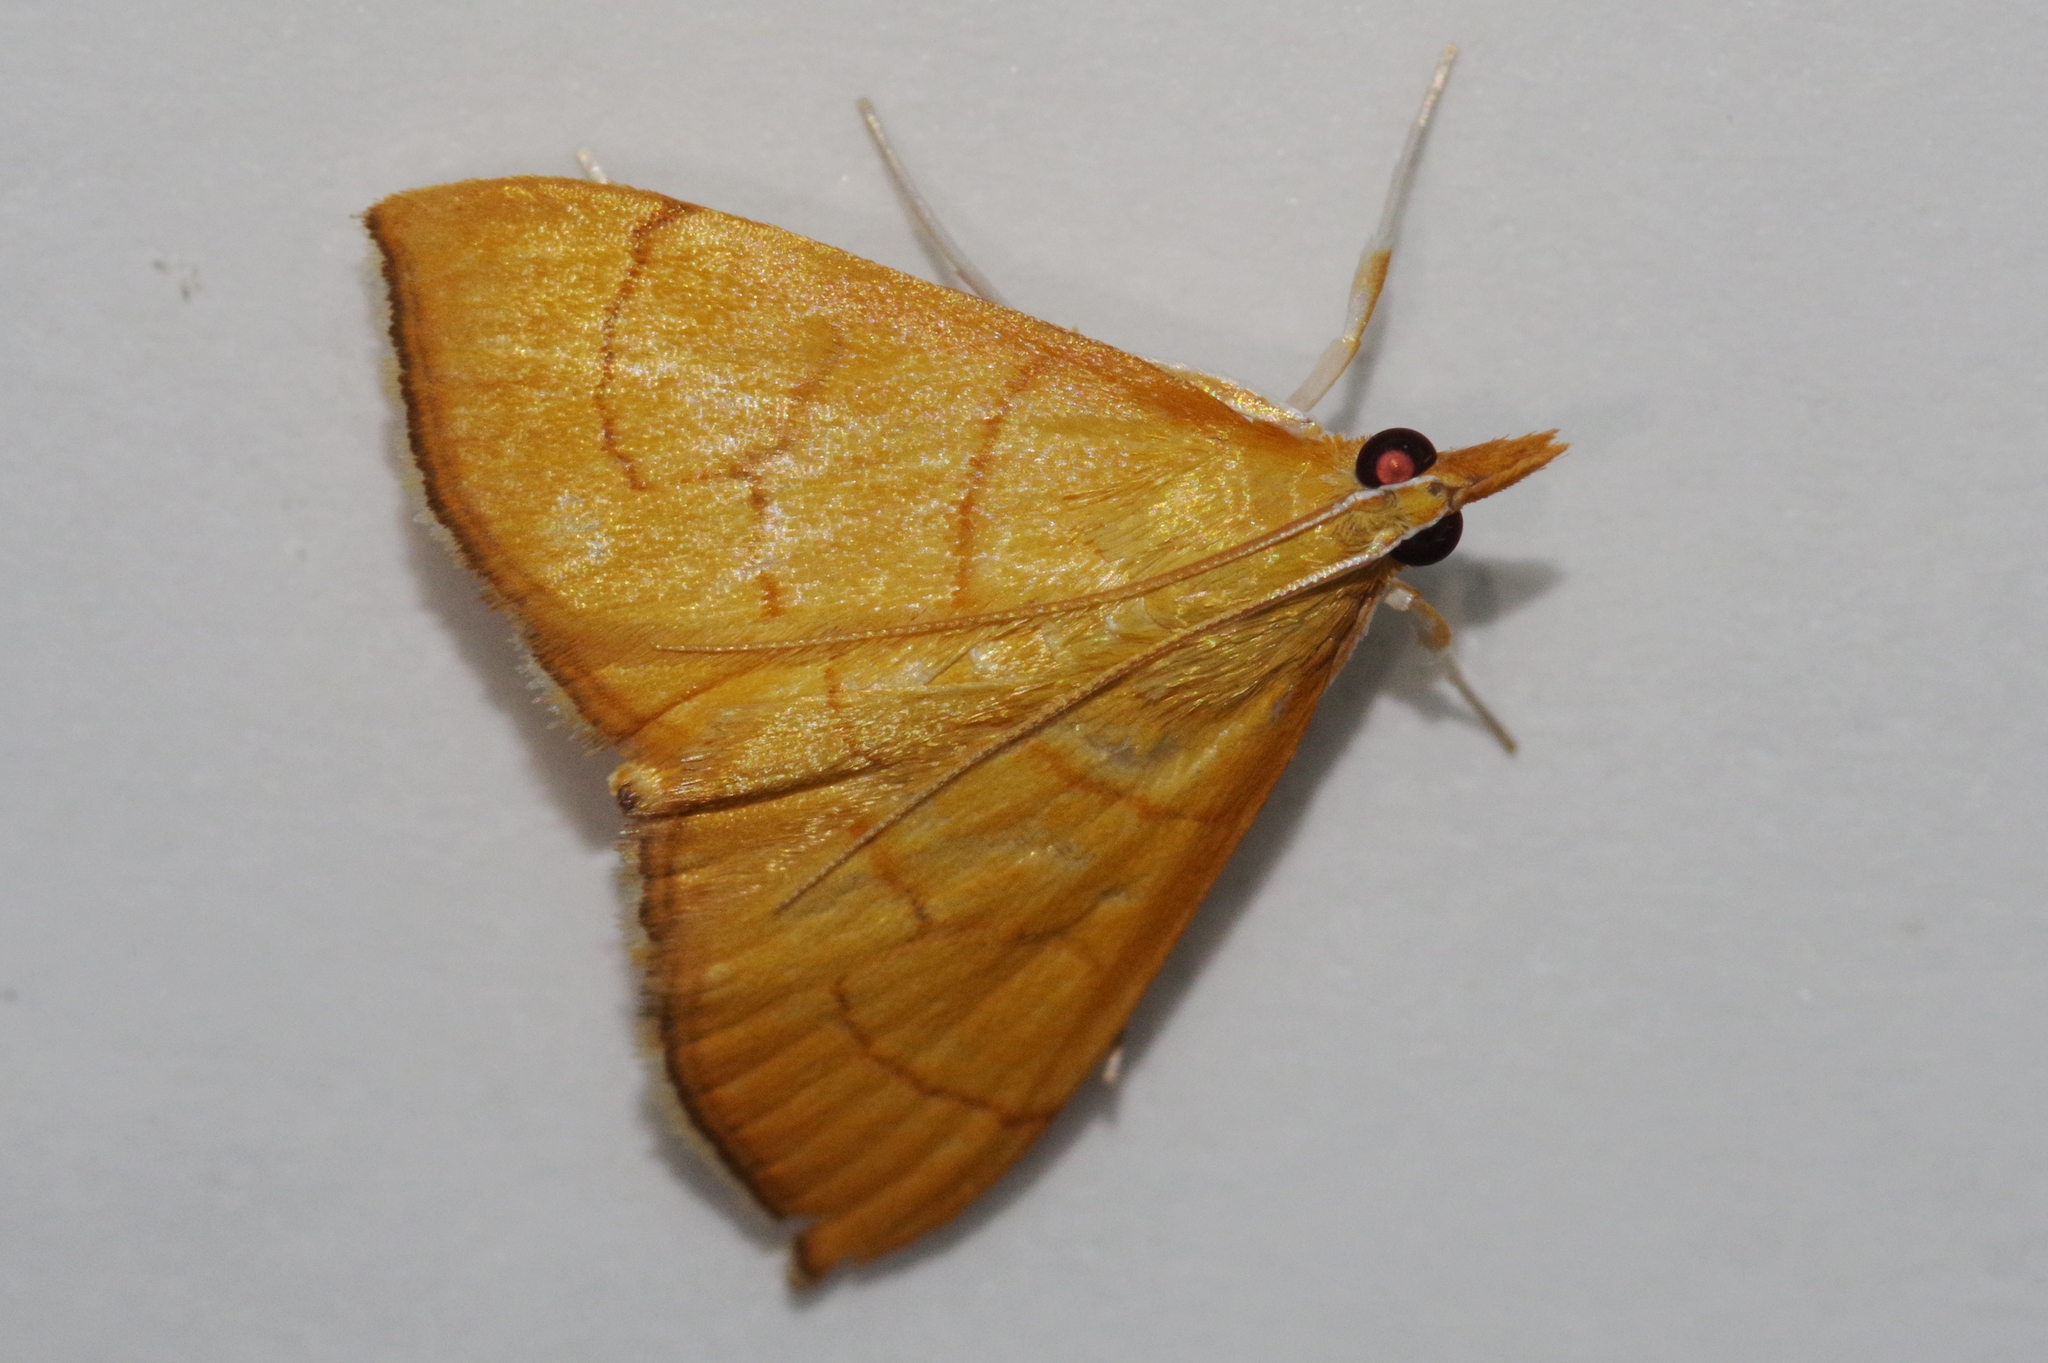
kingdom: Animalia
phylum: Arthropoda
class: Insecta
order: Lepidoptera
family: Crambidae
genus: Ecpyrrhorrhoe
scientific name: Ecpyrrhorrhoe minnehaha
